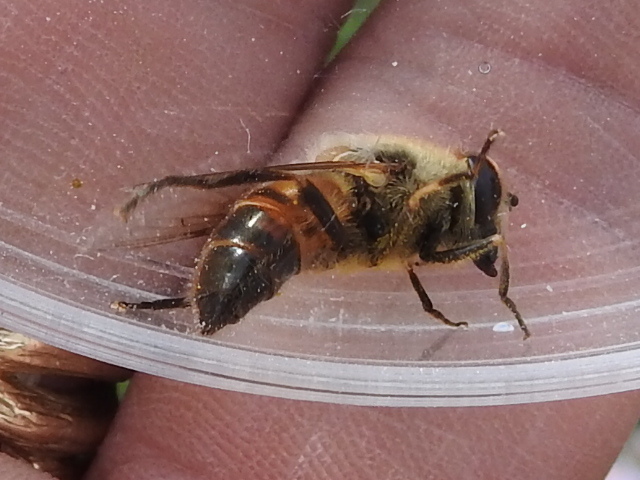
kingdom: Animalia
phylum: Arthropoda
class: Insecta
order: Diptera
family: Syrphidae
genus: Eristalis
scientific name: Eristalis tenax
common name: Drone fly
